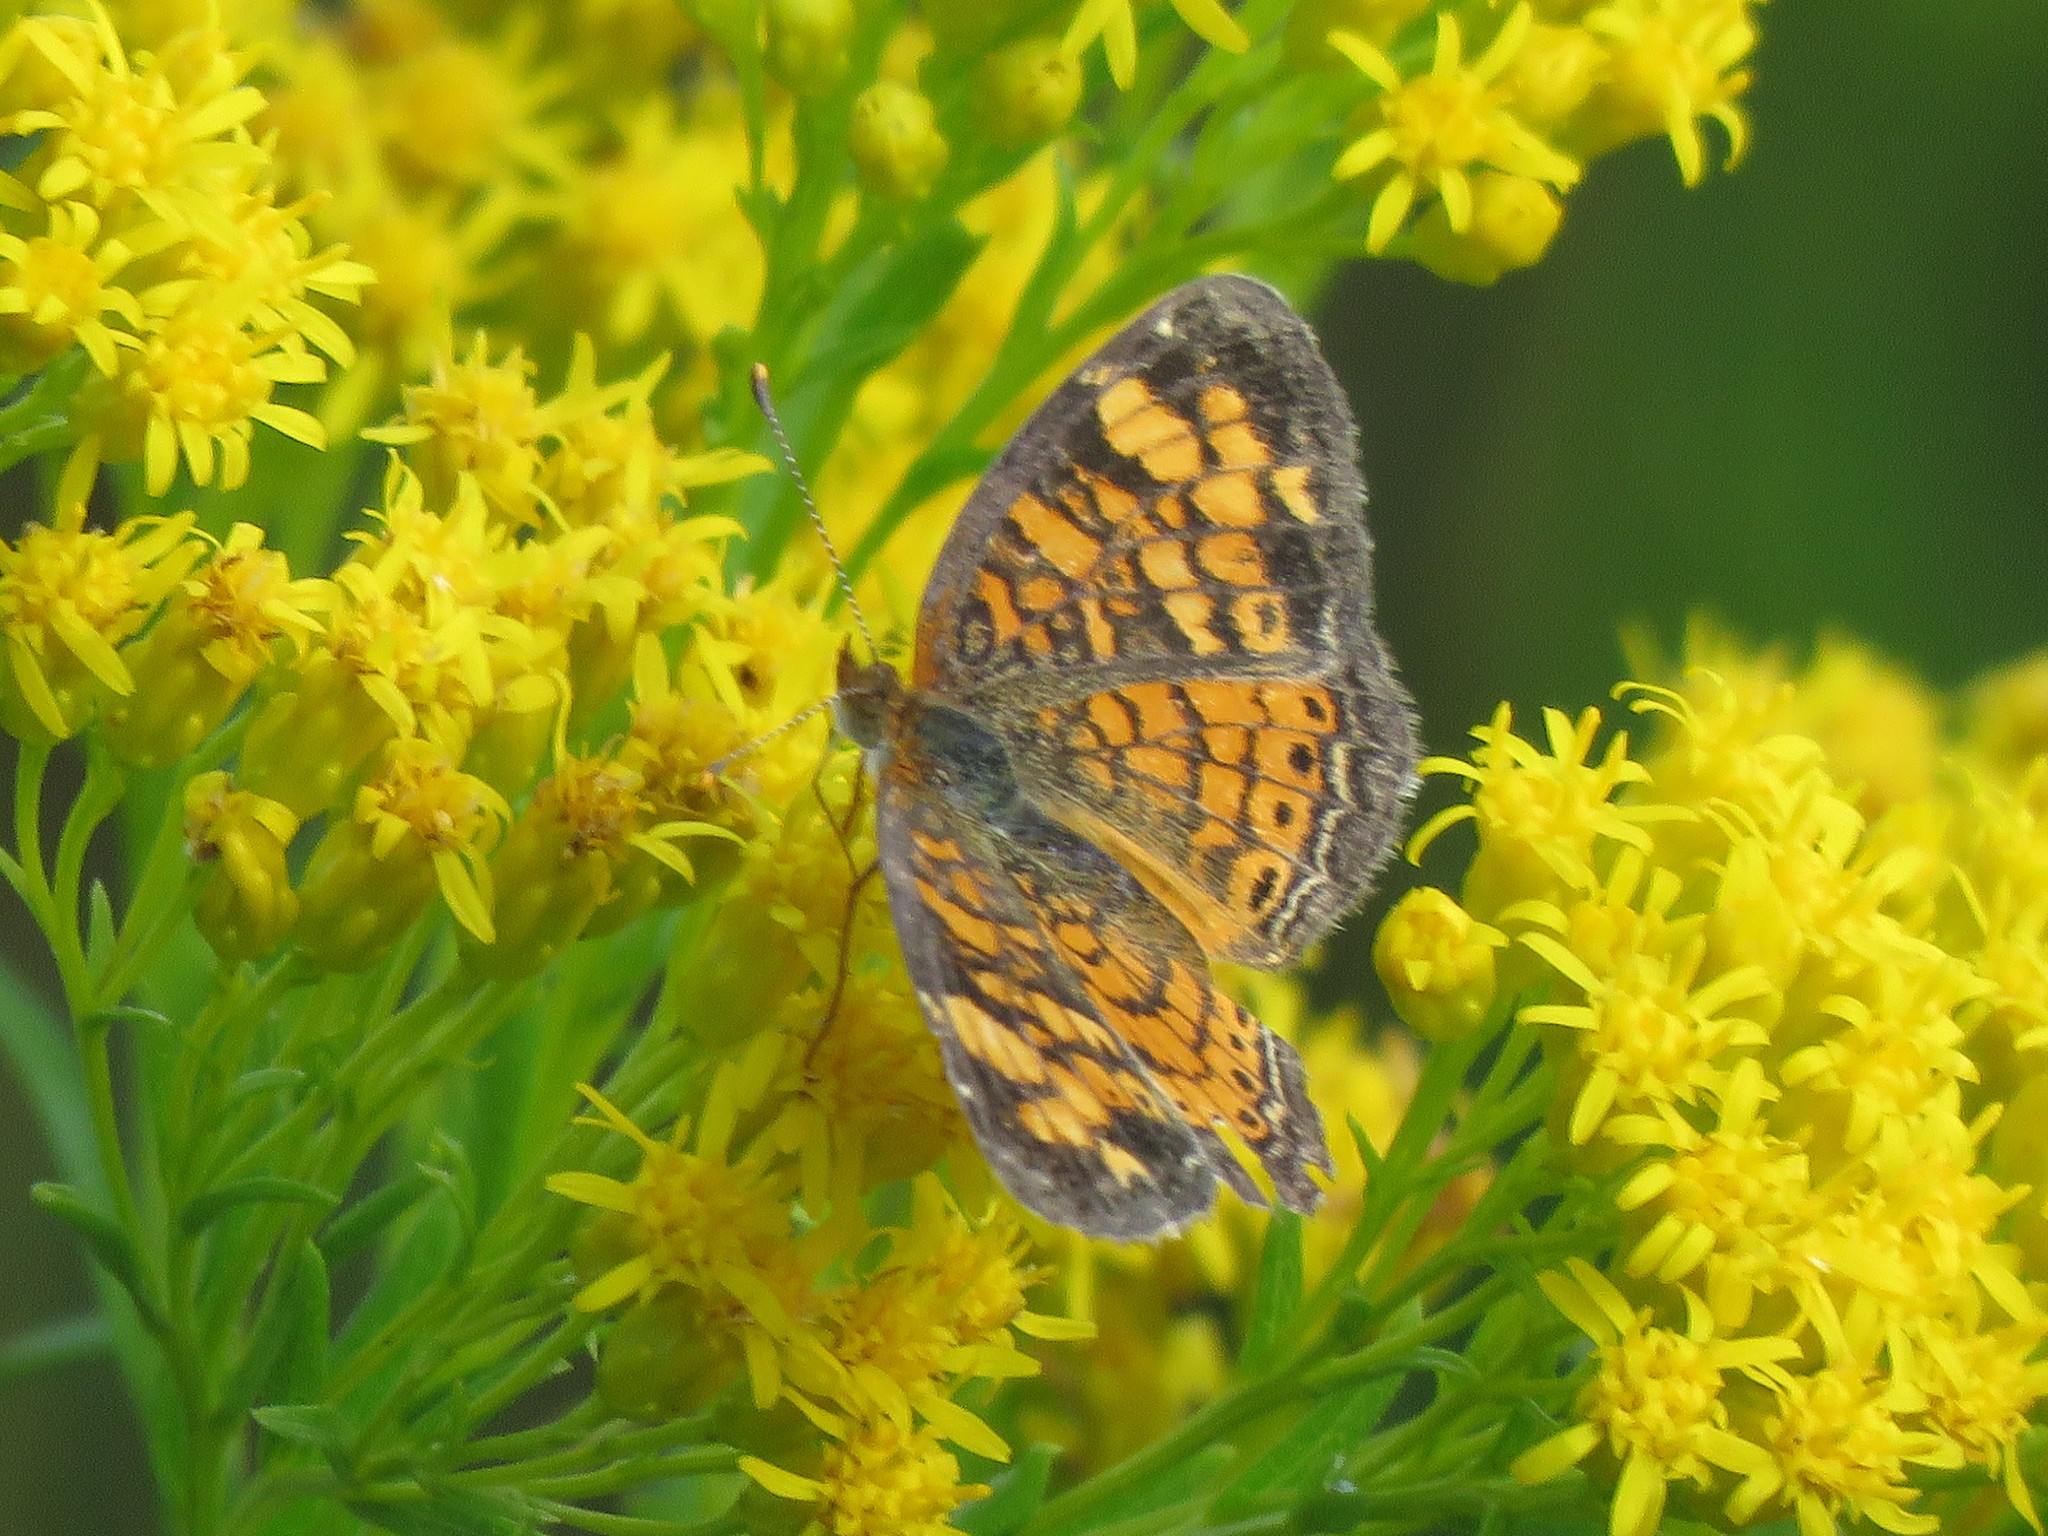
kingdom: Animalia
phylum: Arthropoda
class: Insecta
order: Lepidoptera
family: Nymphalidae
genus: Phyciodes
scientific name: Phyciodes tharos
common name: Pearl crescent
